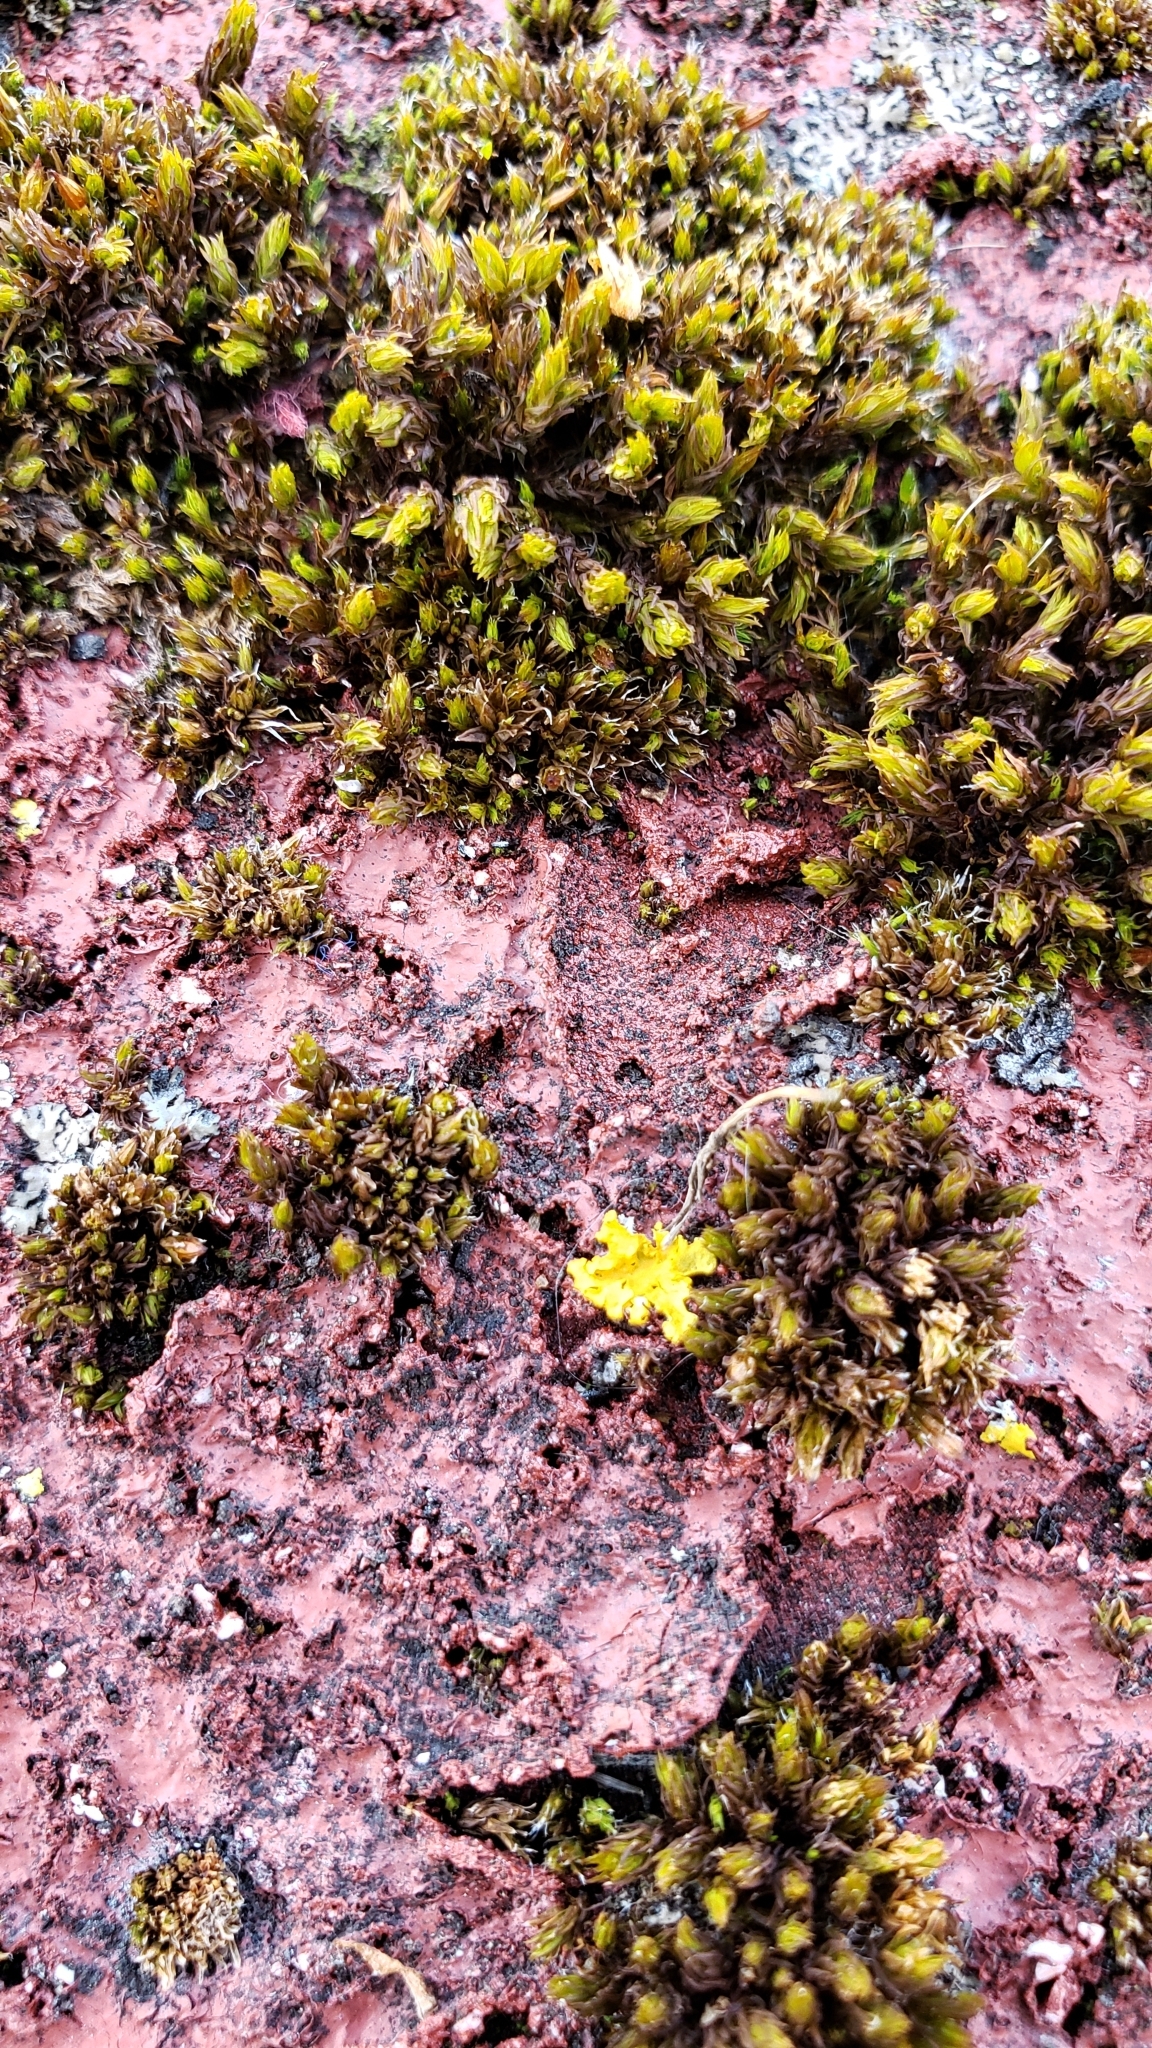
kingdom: Plantae
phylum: Bryophyta
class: Bryopsida
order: Orthotrichales
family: Orthotrichaceae
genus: Orthotrichum
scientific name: Orthotrichum diaphanum
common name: White-tipped bristle-moss
